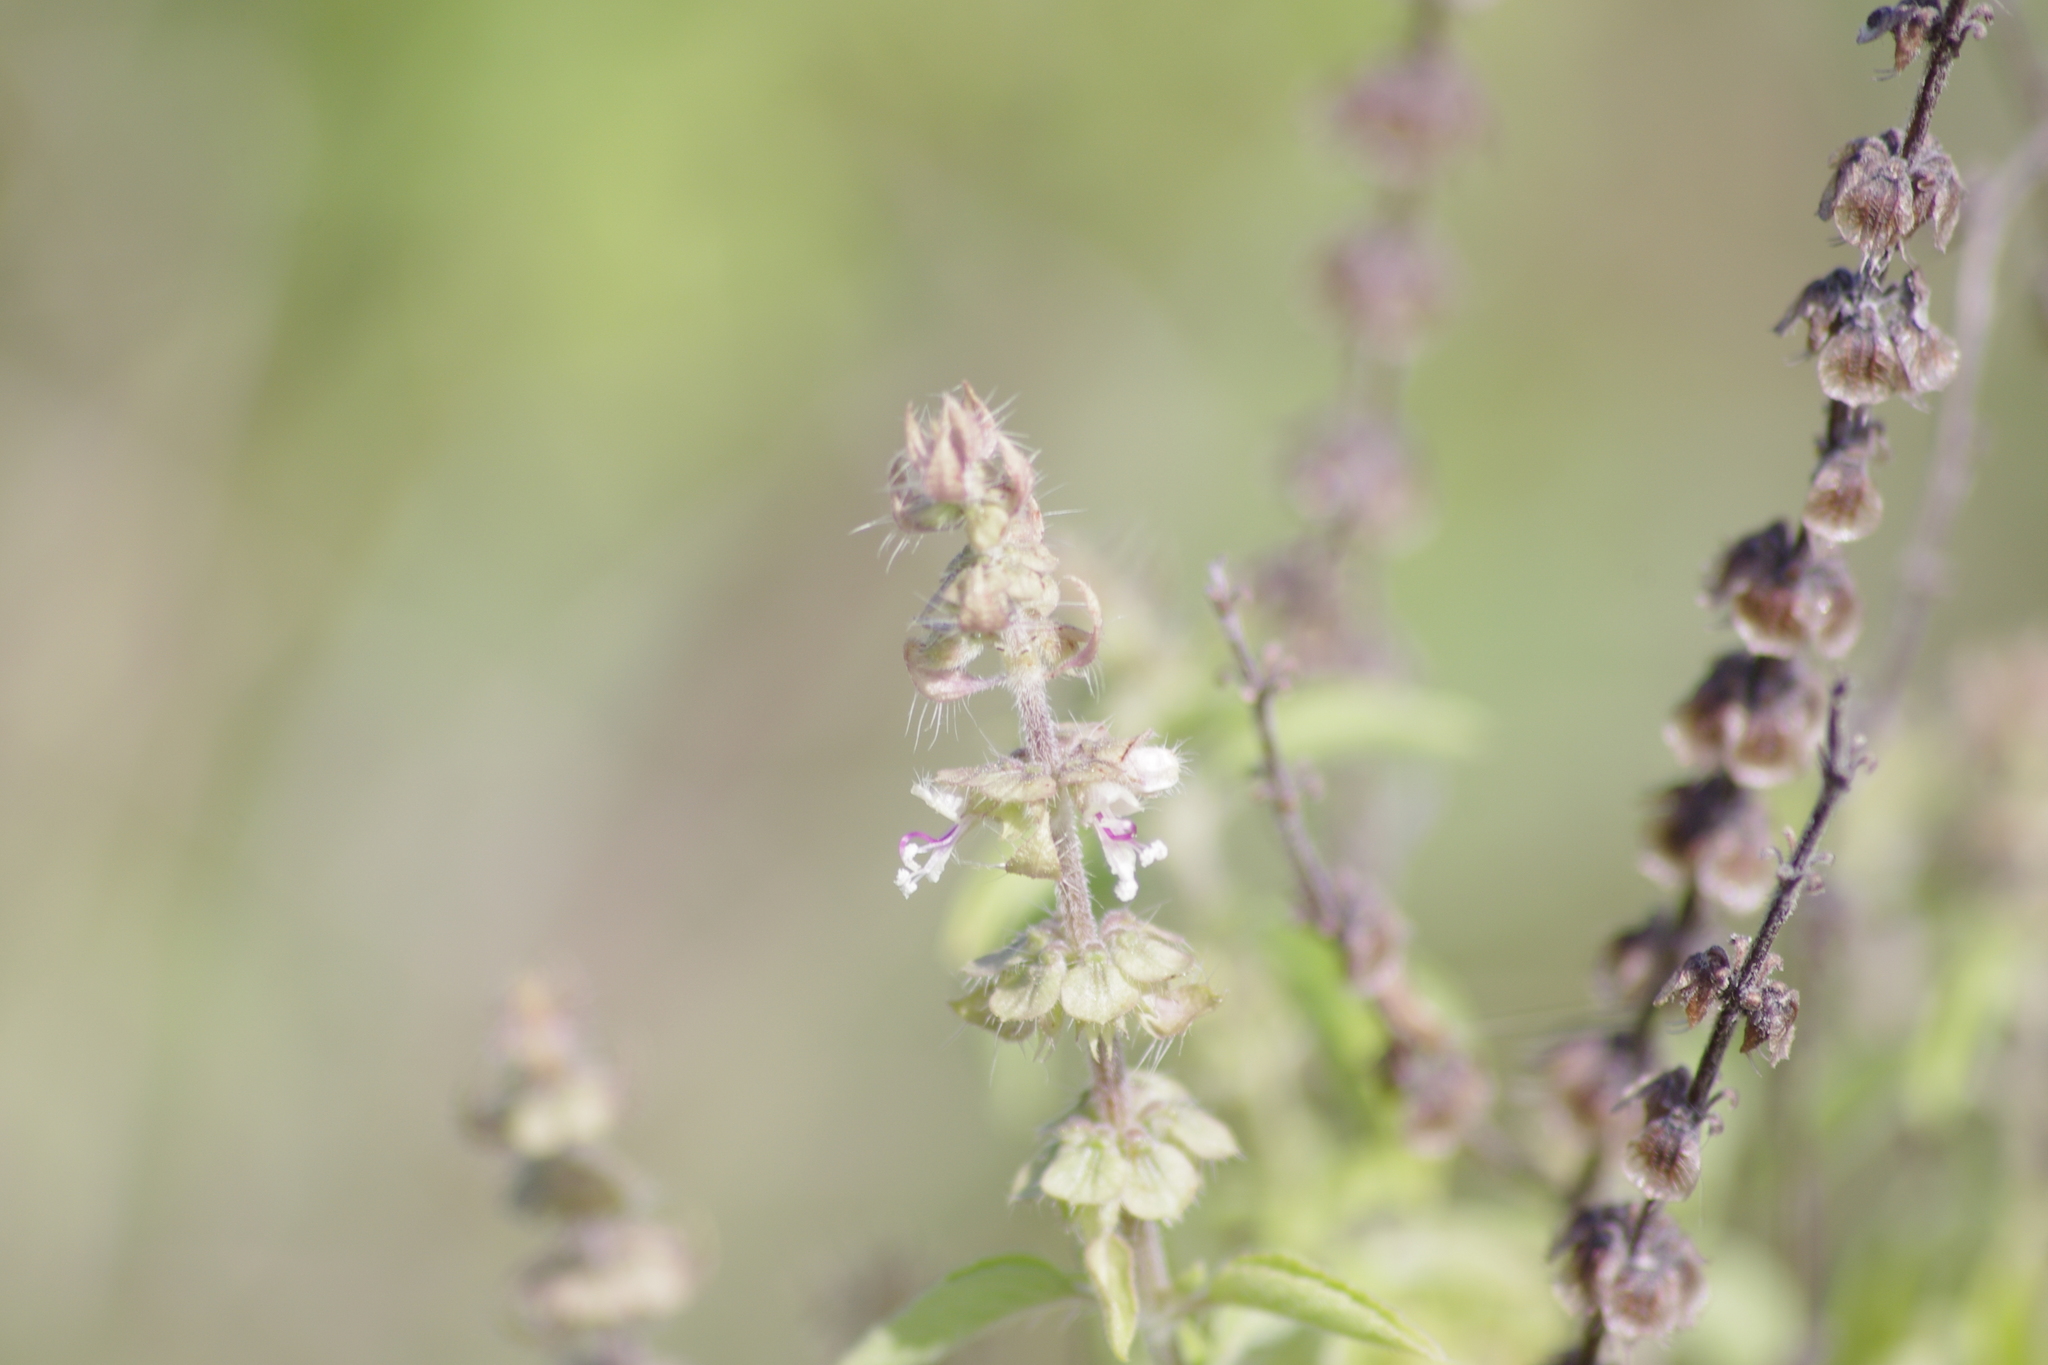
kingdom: Plantae
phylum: Tracheophyta
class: Magnoliopsida
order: Lamiales
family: Lamiaceae
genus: Ocimum
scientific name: Ocimum basilicum
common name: Sweet basil
